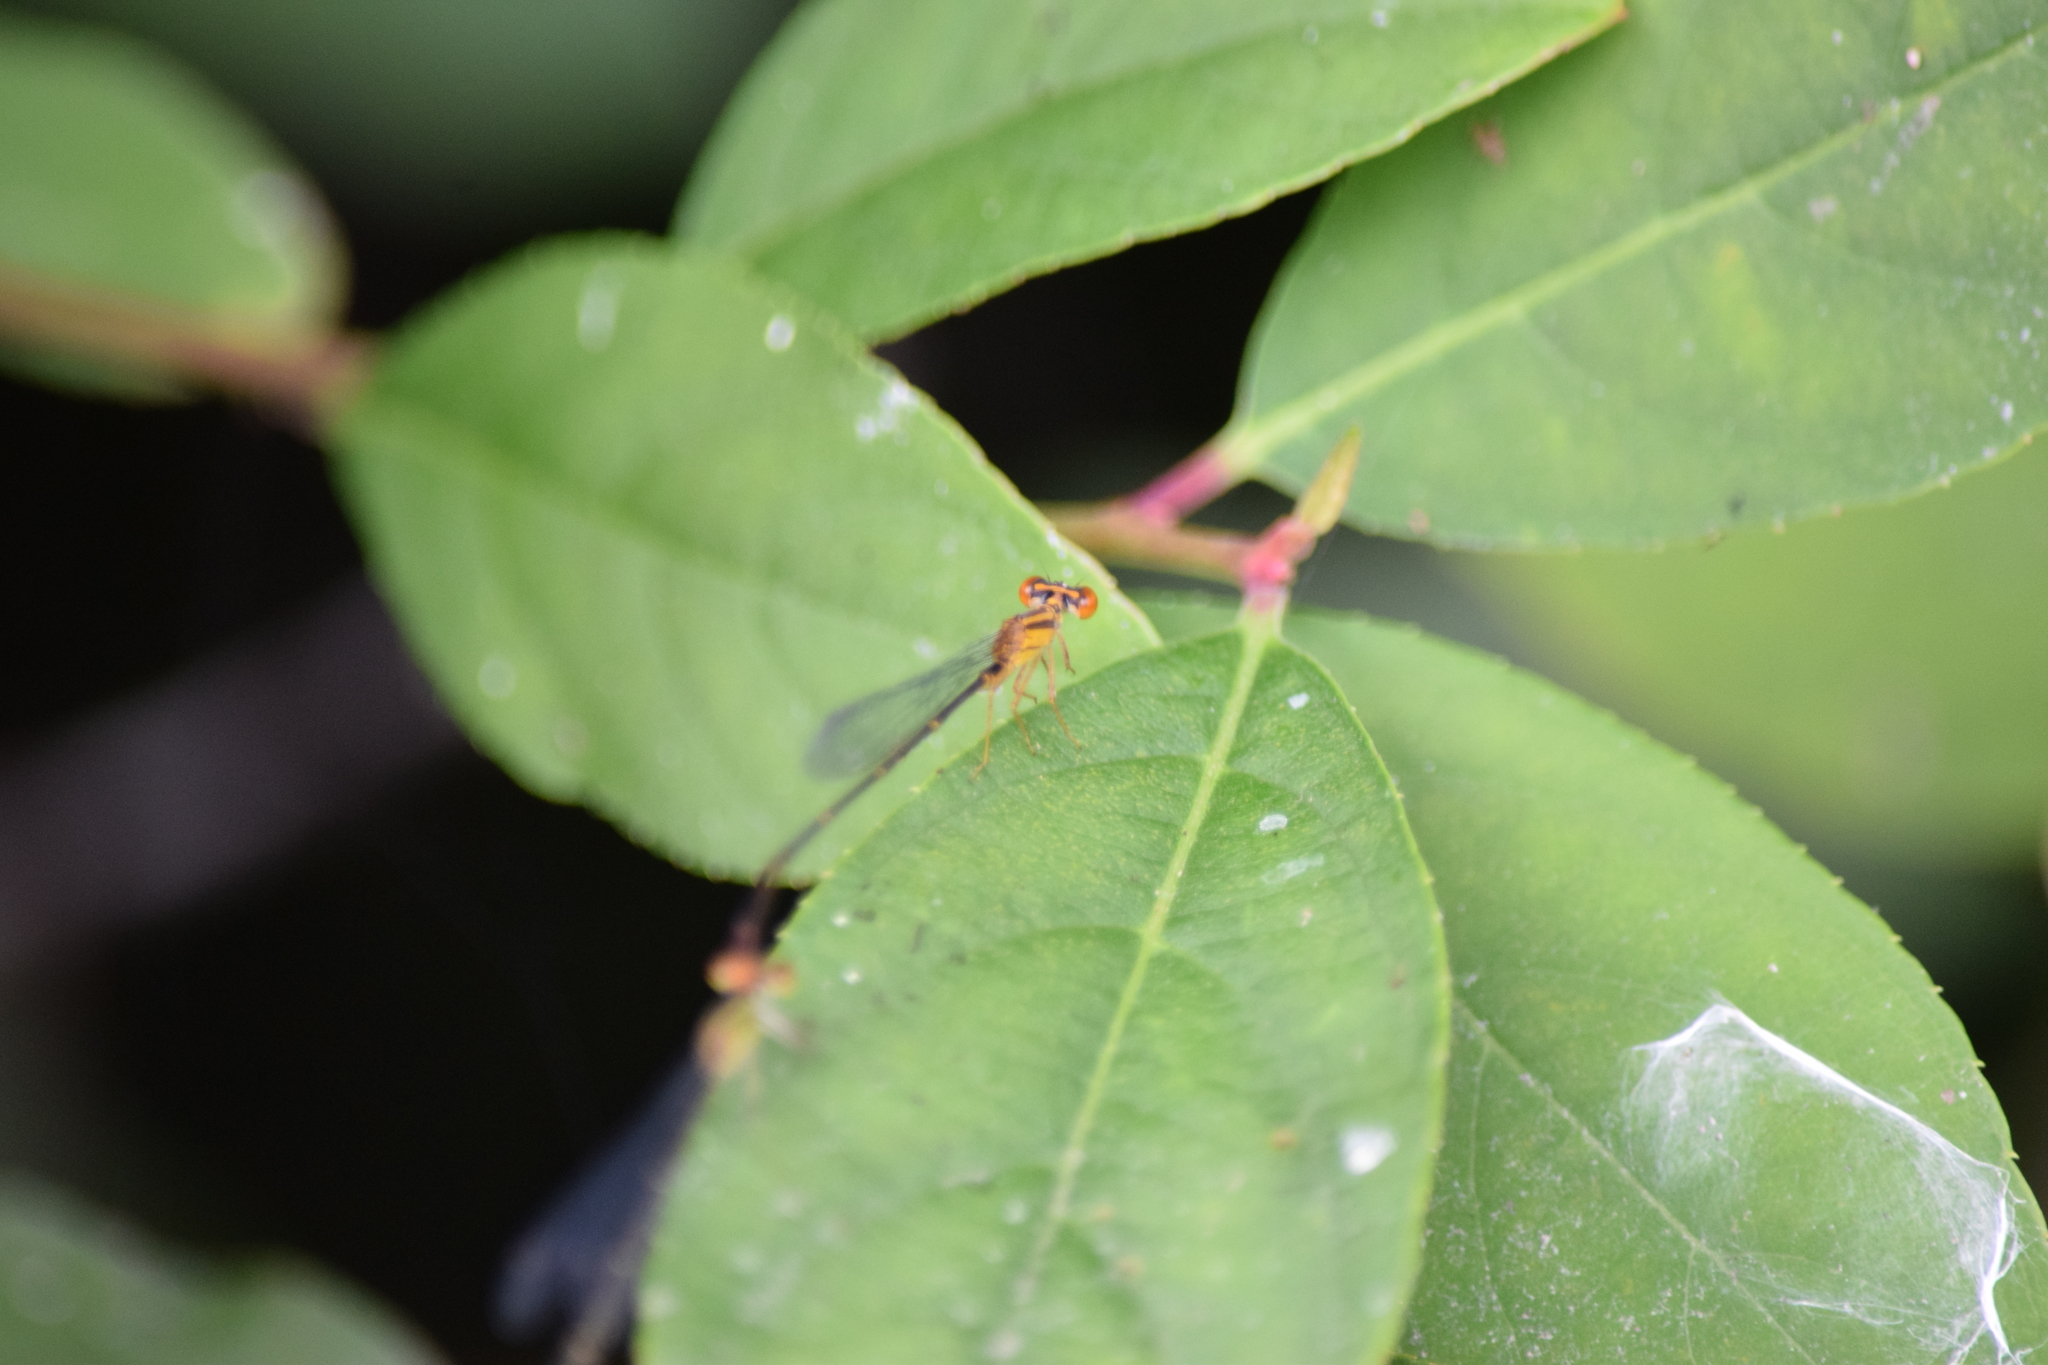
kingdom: Animalia
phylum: Arthropoda
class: Insecta
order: Odonata
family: Coenagrionidae
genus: Enallagma
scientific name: Enallagma signatum
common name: Orange bluet
